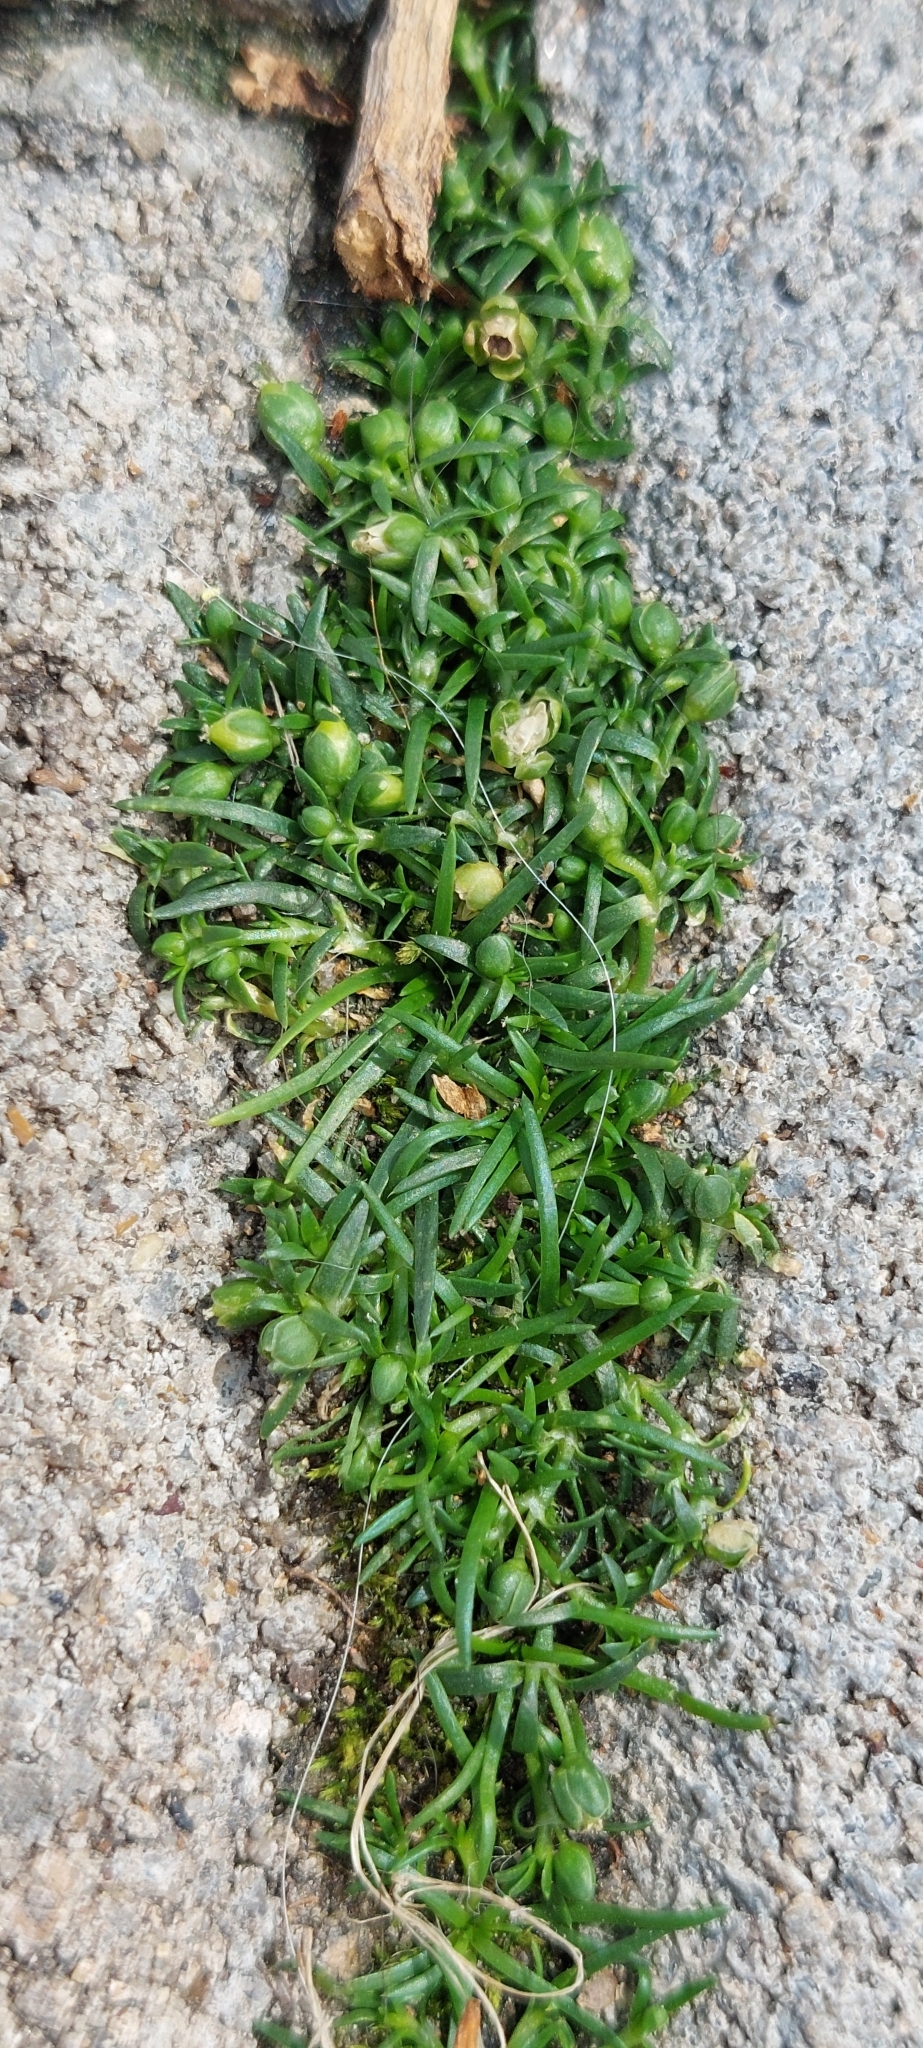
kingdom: Plantae
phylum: Tracheophyta
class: Magnoliopsida
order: Caryophyllales
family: Caryophyllaceae
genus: Sagina
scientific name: Sagina procumbens
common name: Procumbent pearlwort
